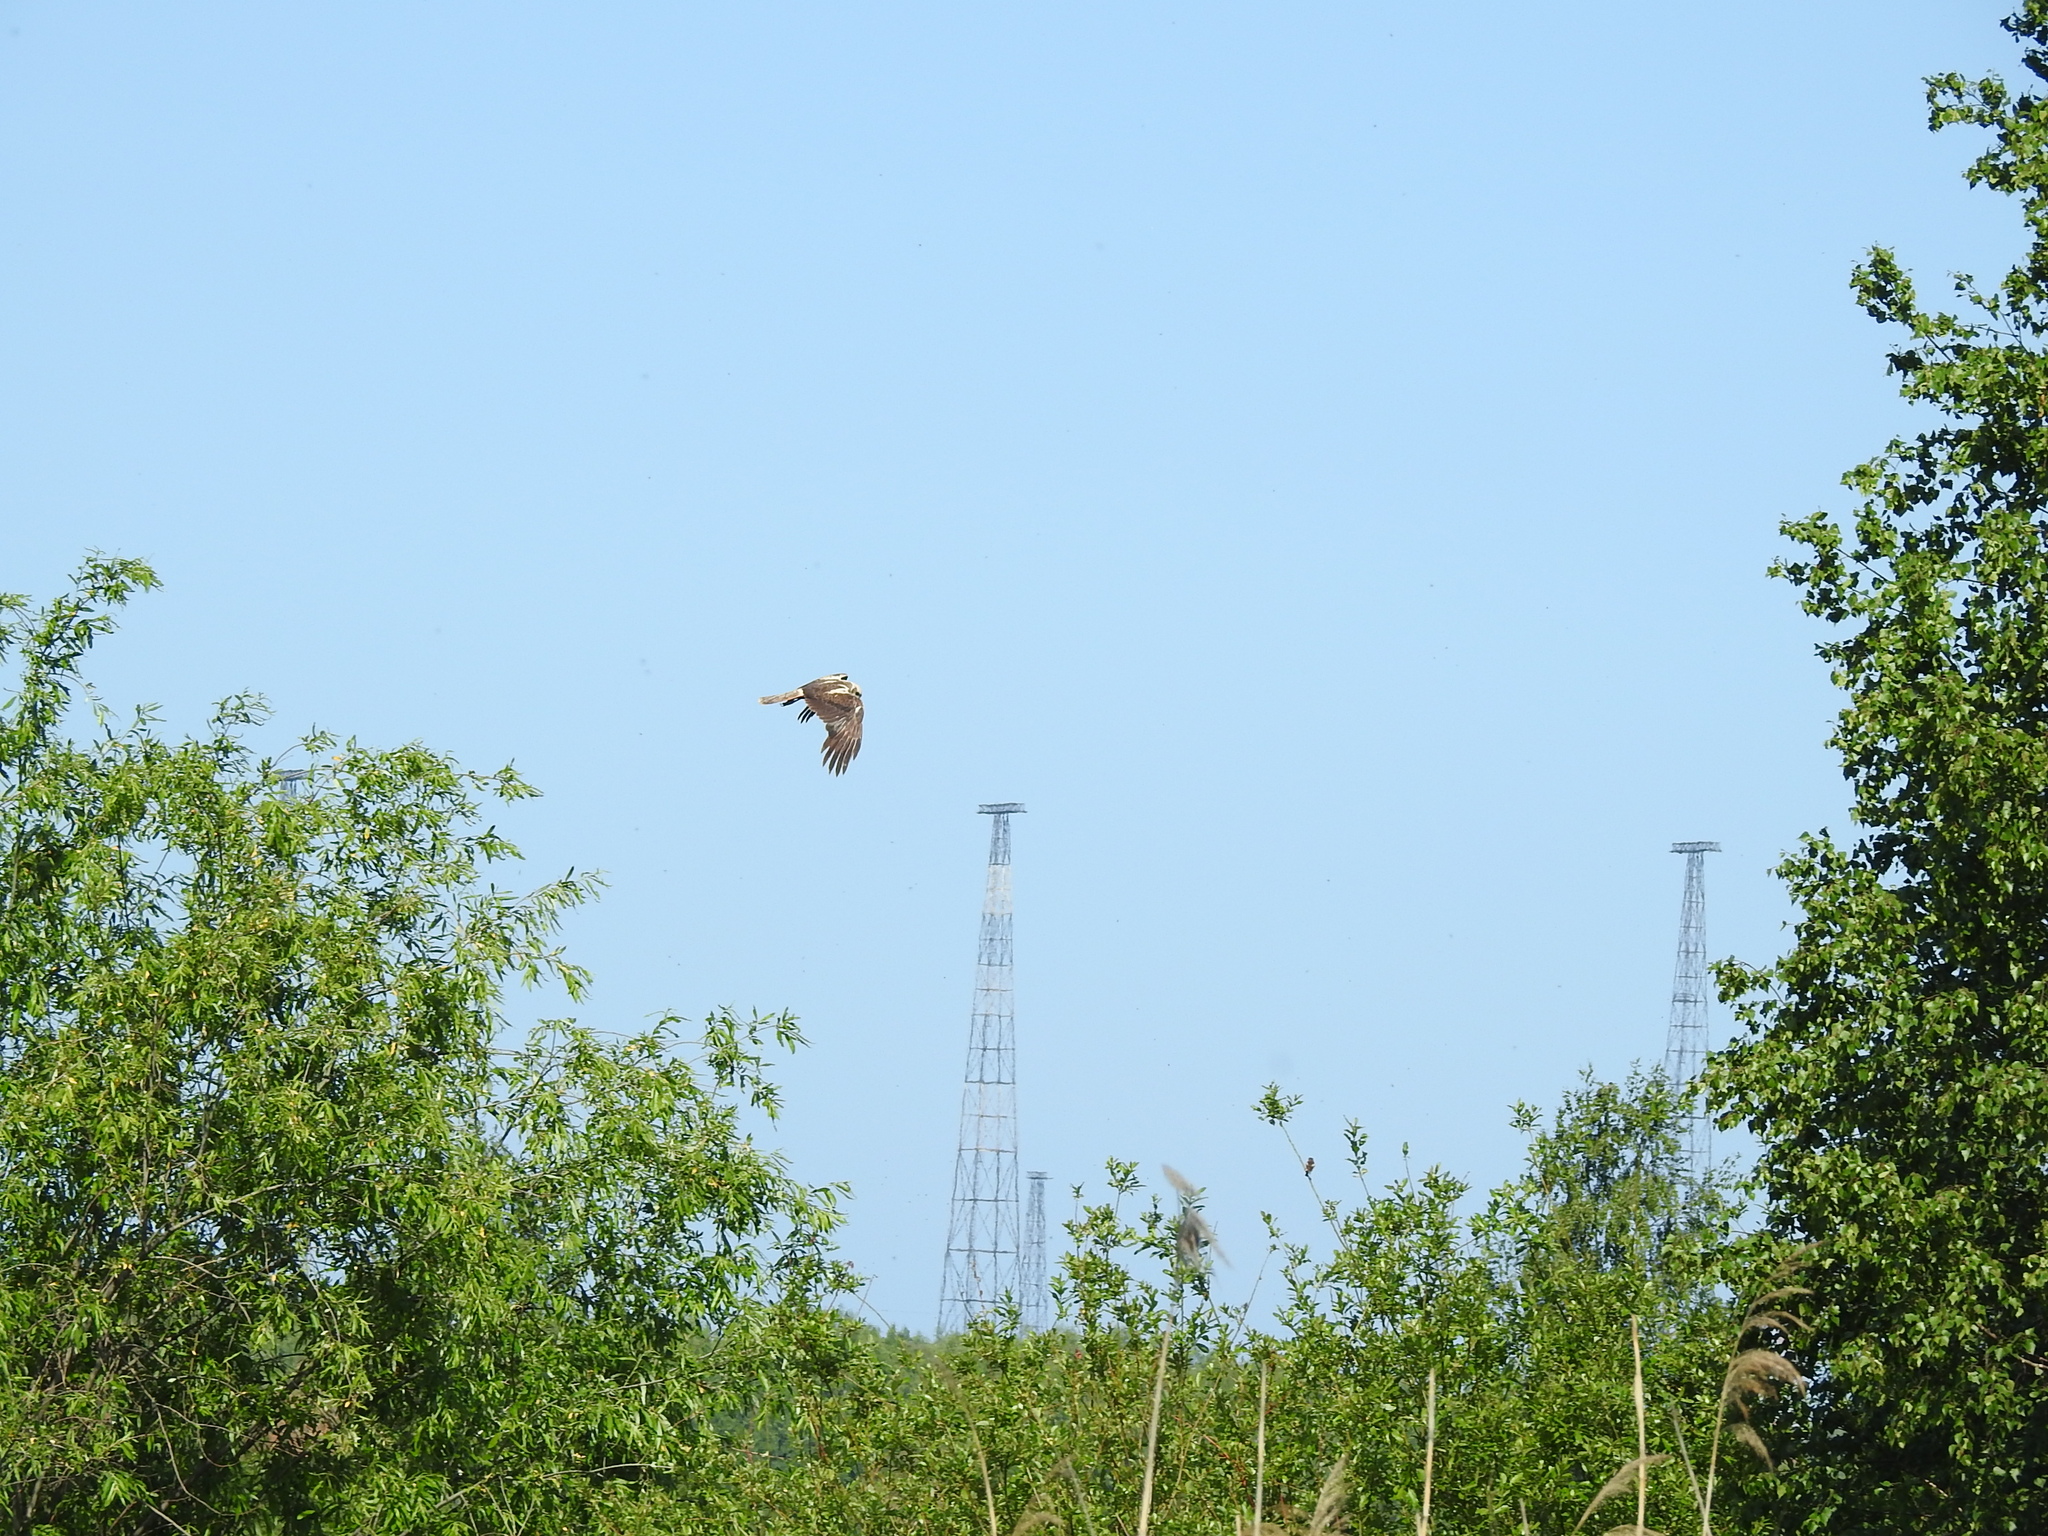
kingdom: Animalia
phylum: Chordata
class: Aves
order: Accipitriformes
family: Accipitridae
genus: Circus
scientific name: Circus aeruginosus
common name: Western marsh harrier
